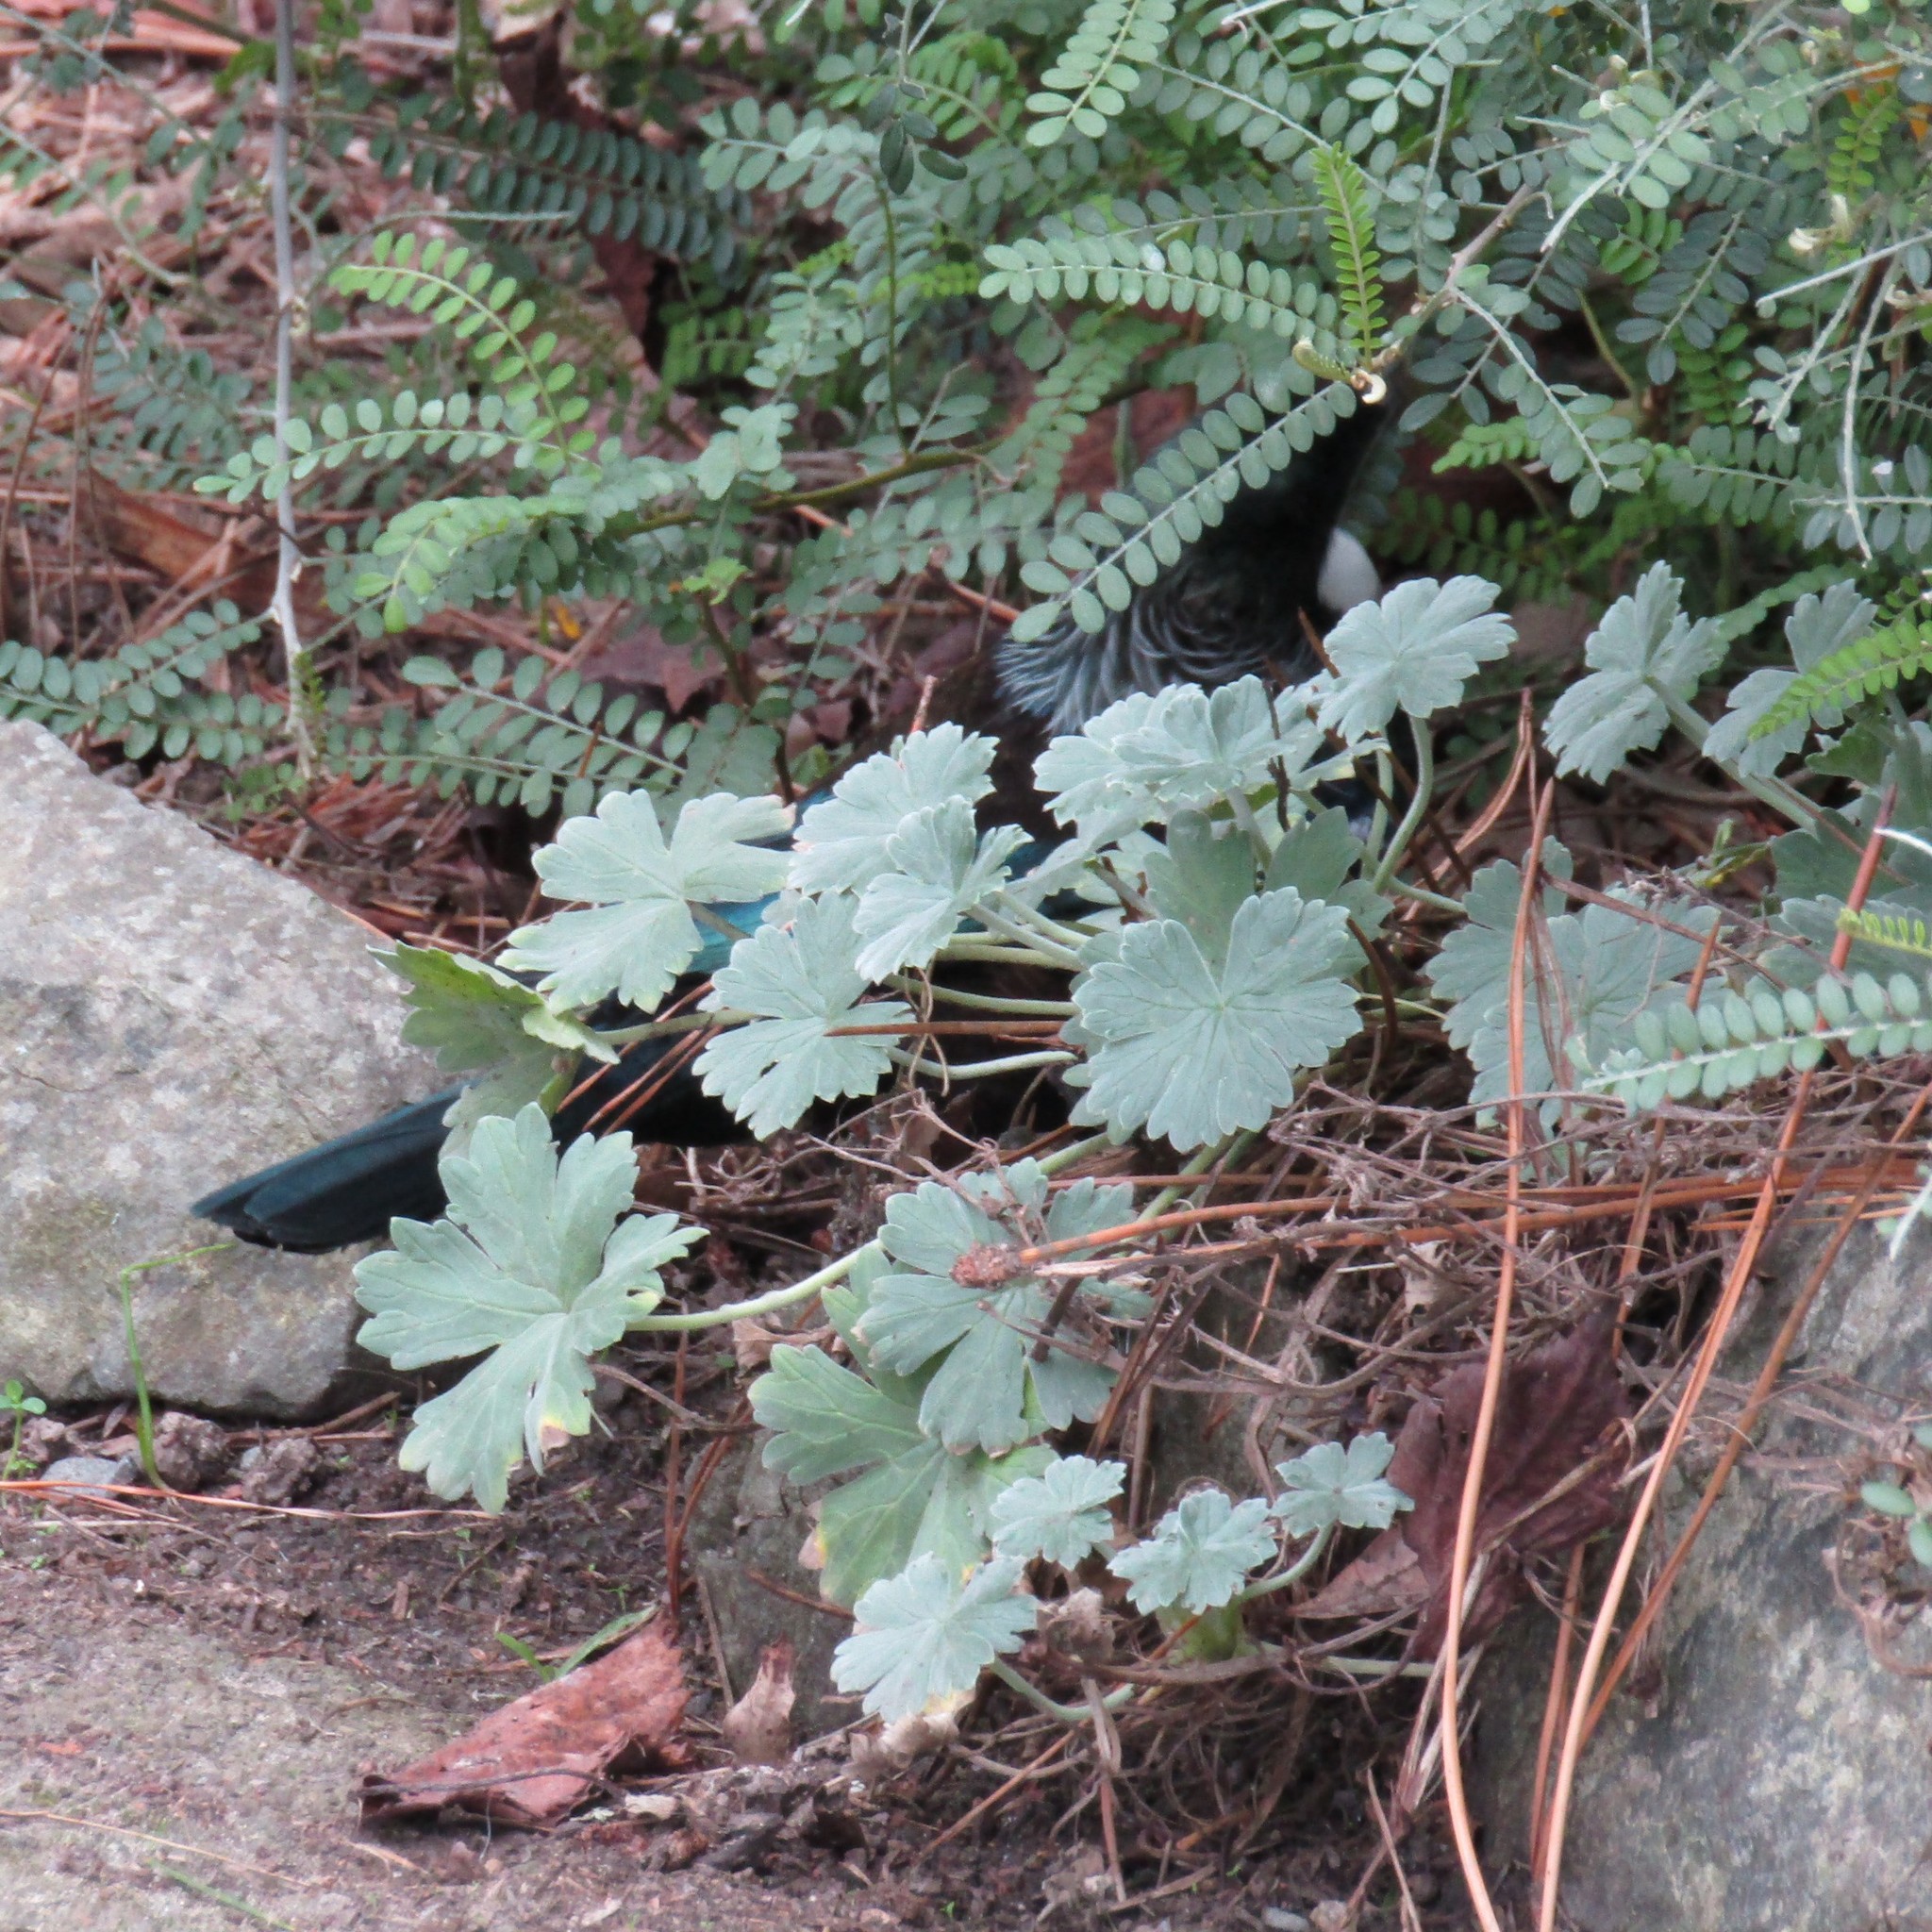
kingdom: Animalia
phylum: Chordata
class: Aves
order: Passeriformes
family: Meliphagidae
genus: Prosthemadera
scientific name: Prosthemadera novaeseelandiae
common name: Tui
